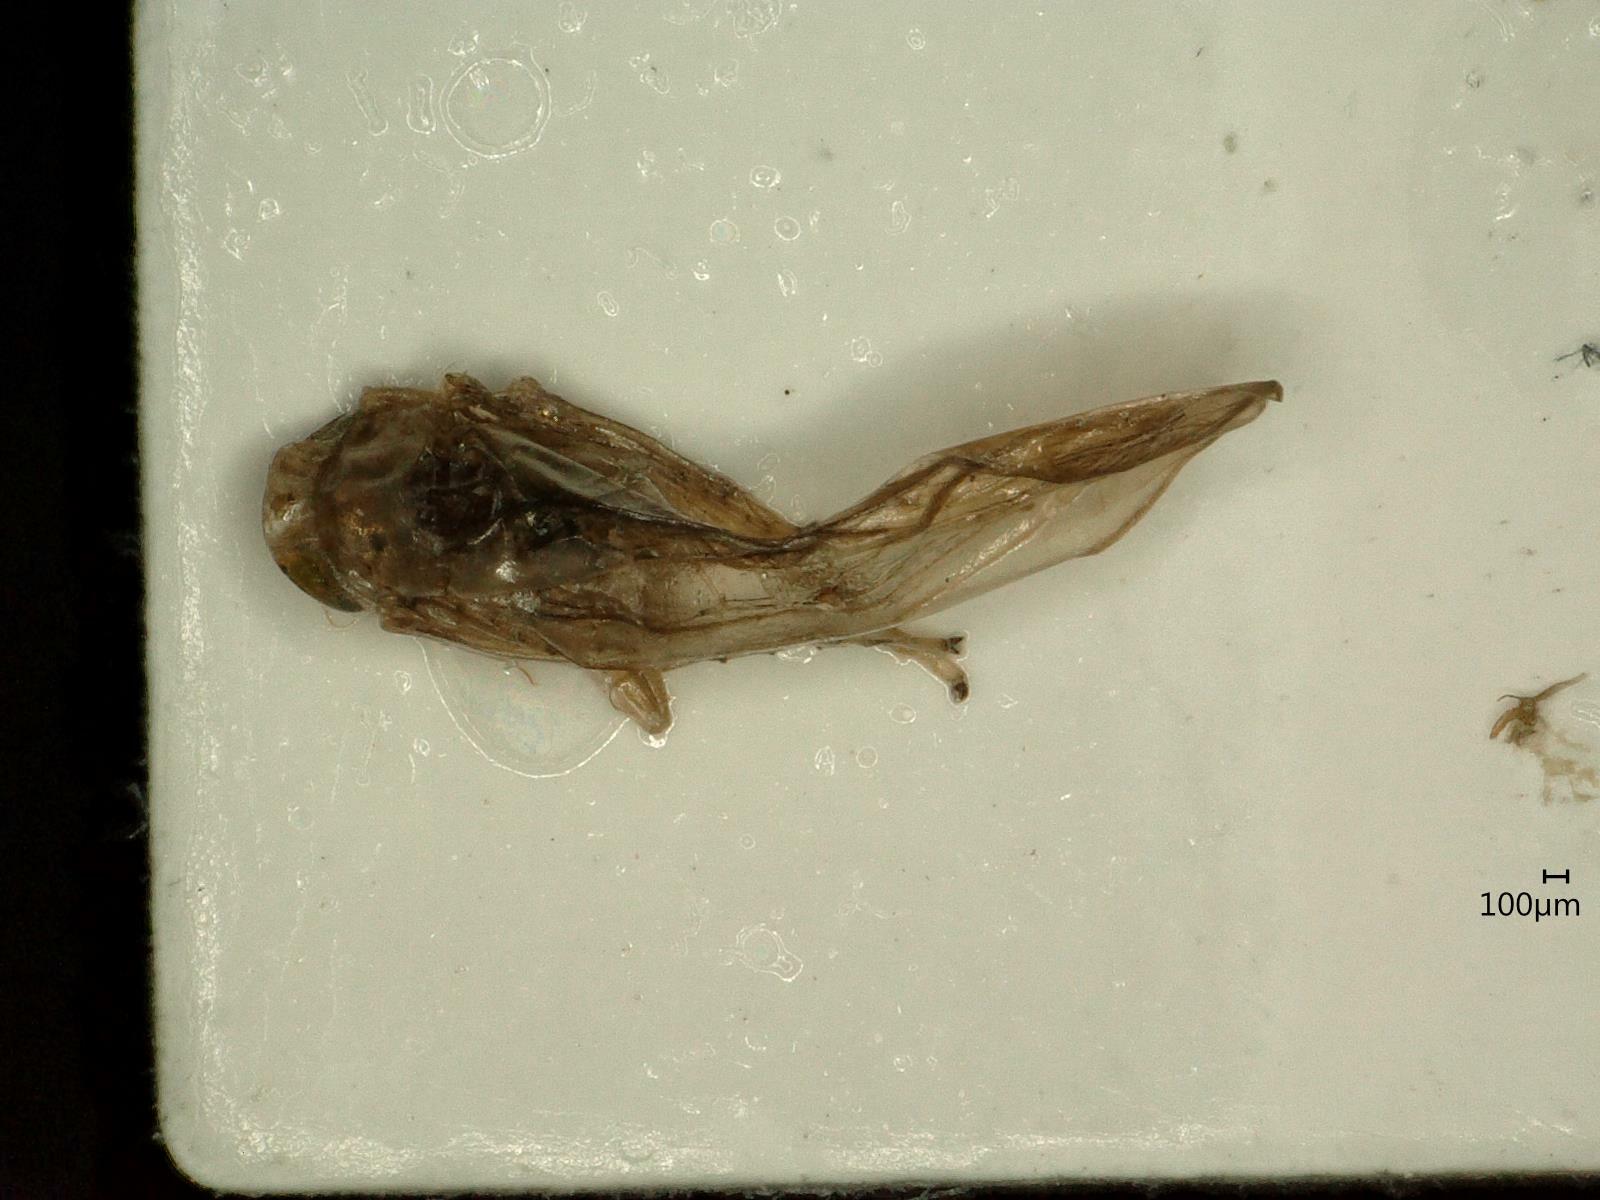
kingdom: Animalia
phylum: Arthropoda
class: Insecta
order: Hemiptera
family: Cicadellidae
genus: Kybos
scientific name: Kybos virgator
